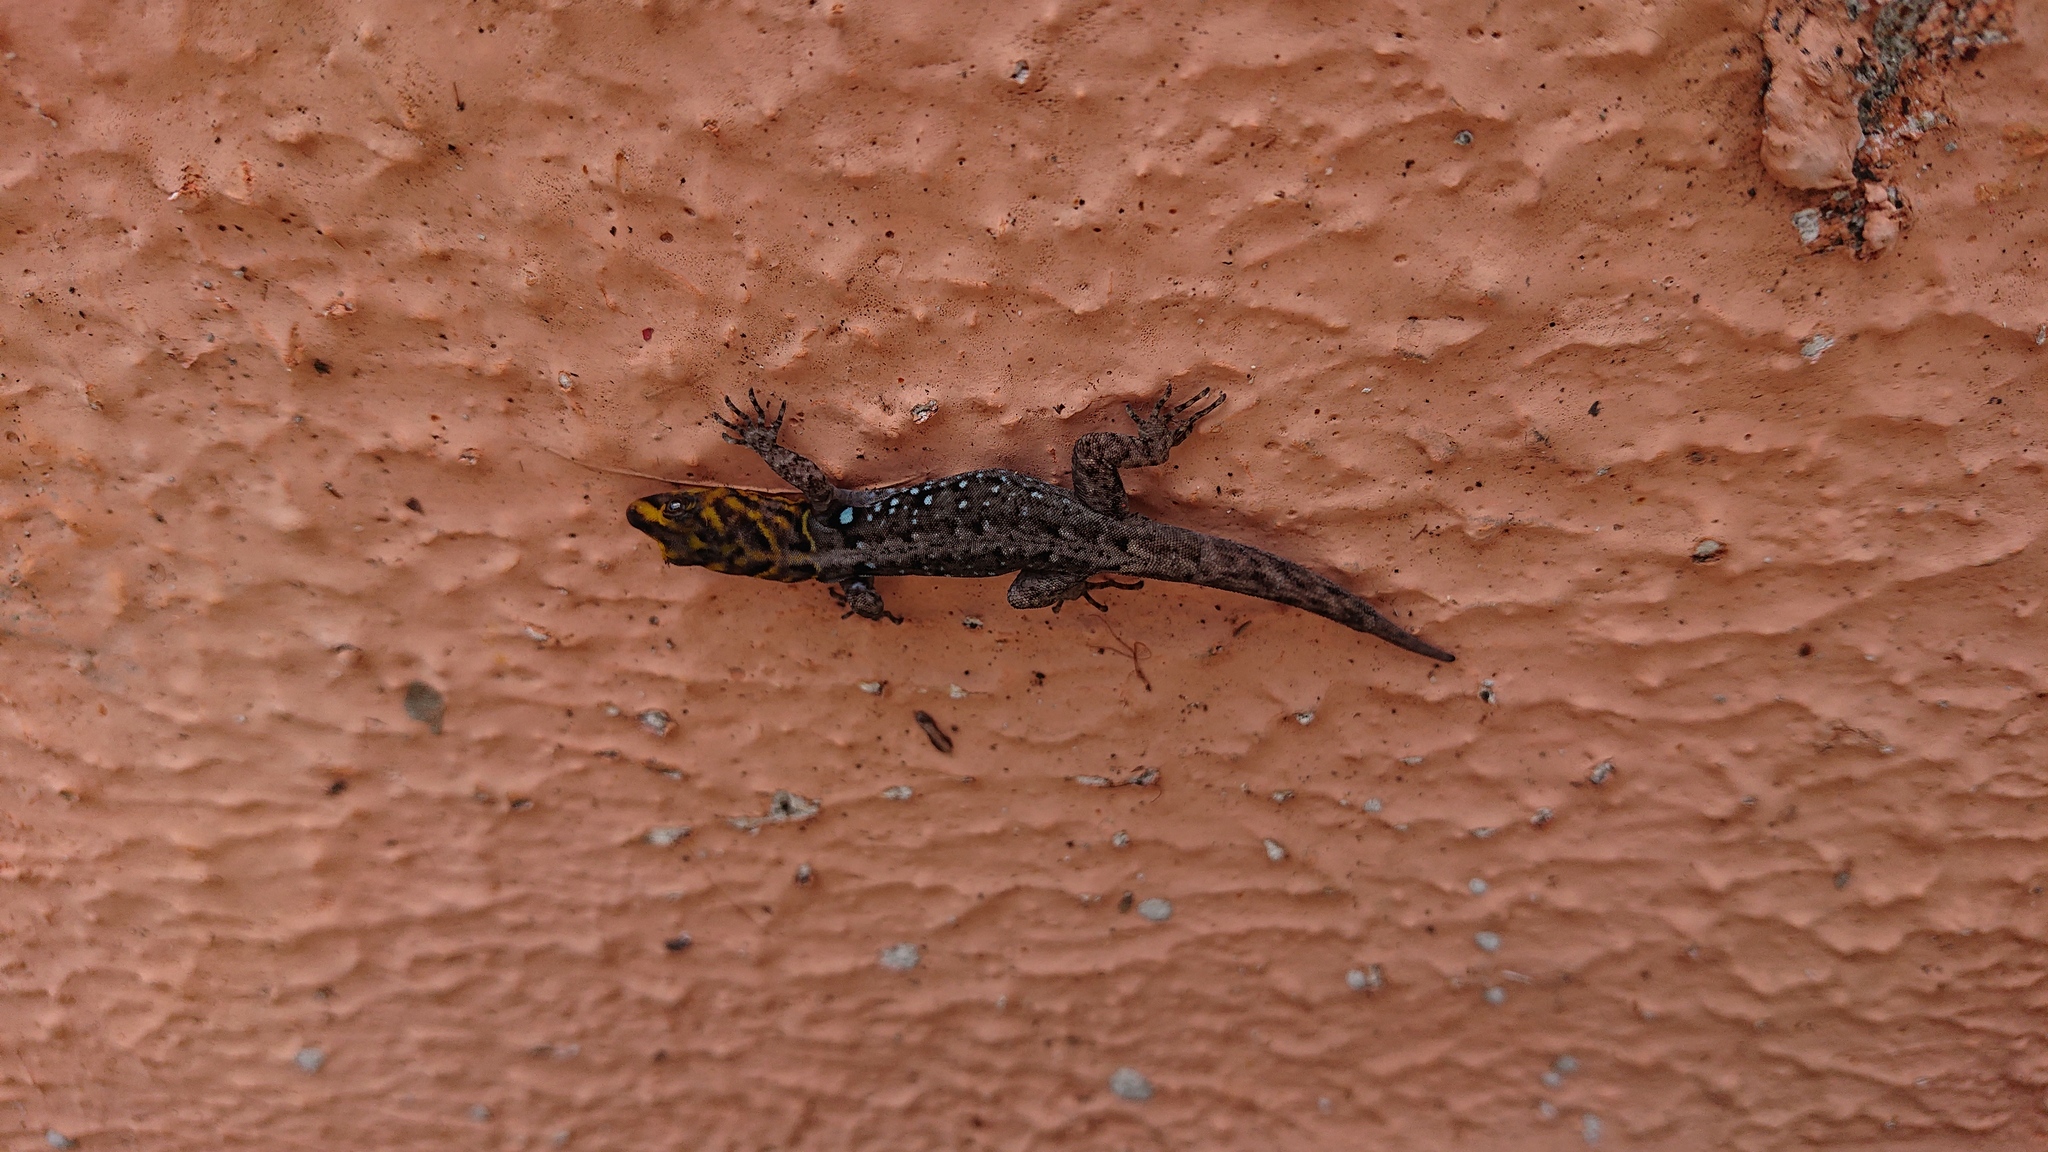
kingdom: Animalia
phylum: Chordata
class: Squamata
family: Sphaerodactylidae
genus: Gonatodes
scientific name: Gonatodes caudiscutatus
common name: Shieldhead gecko
